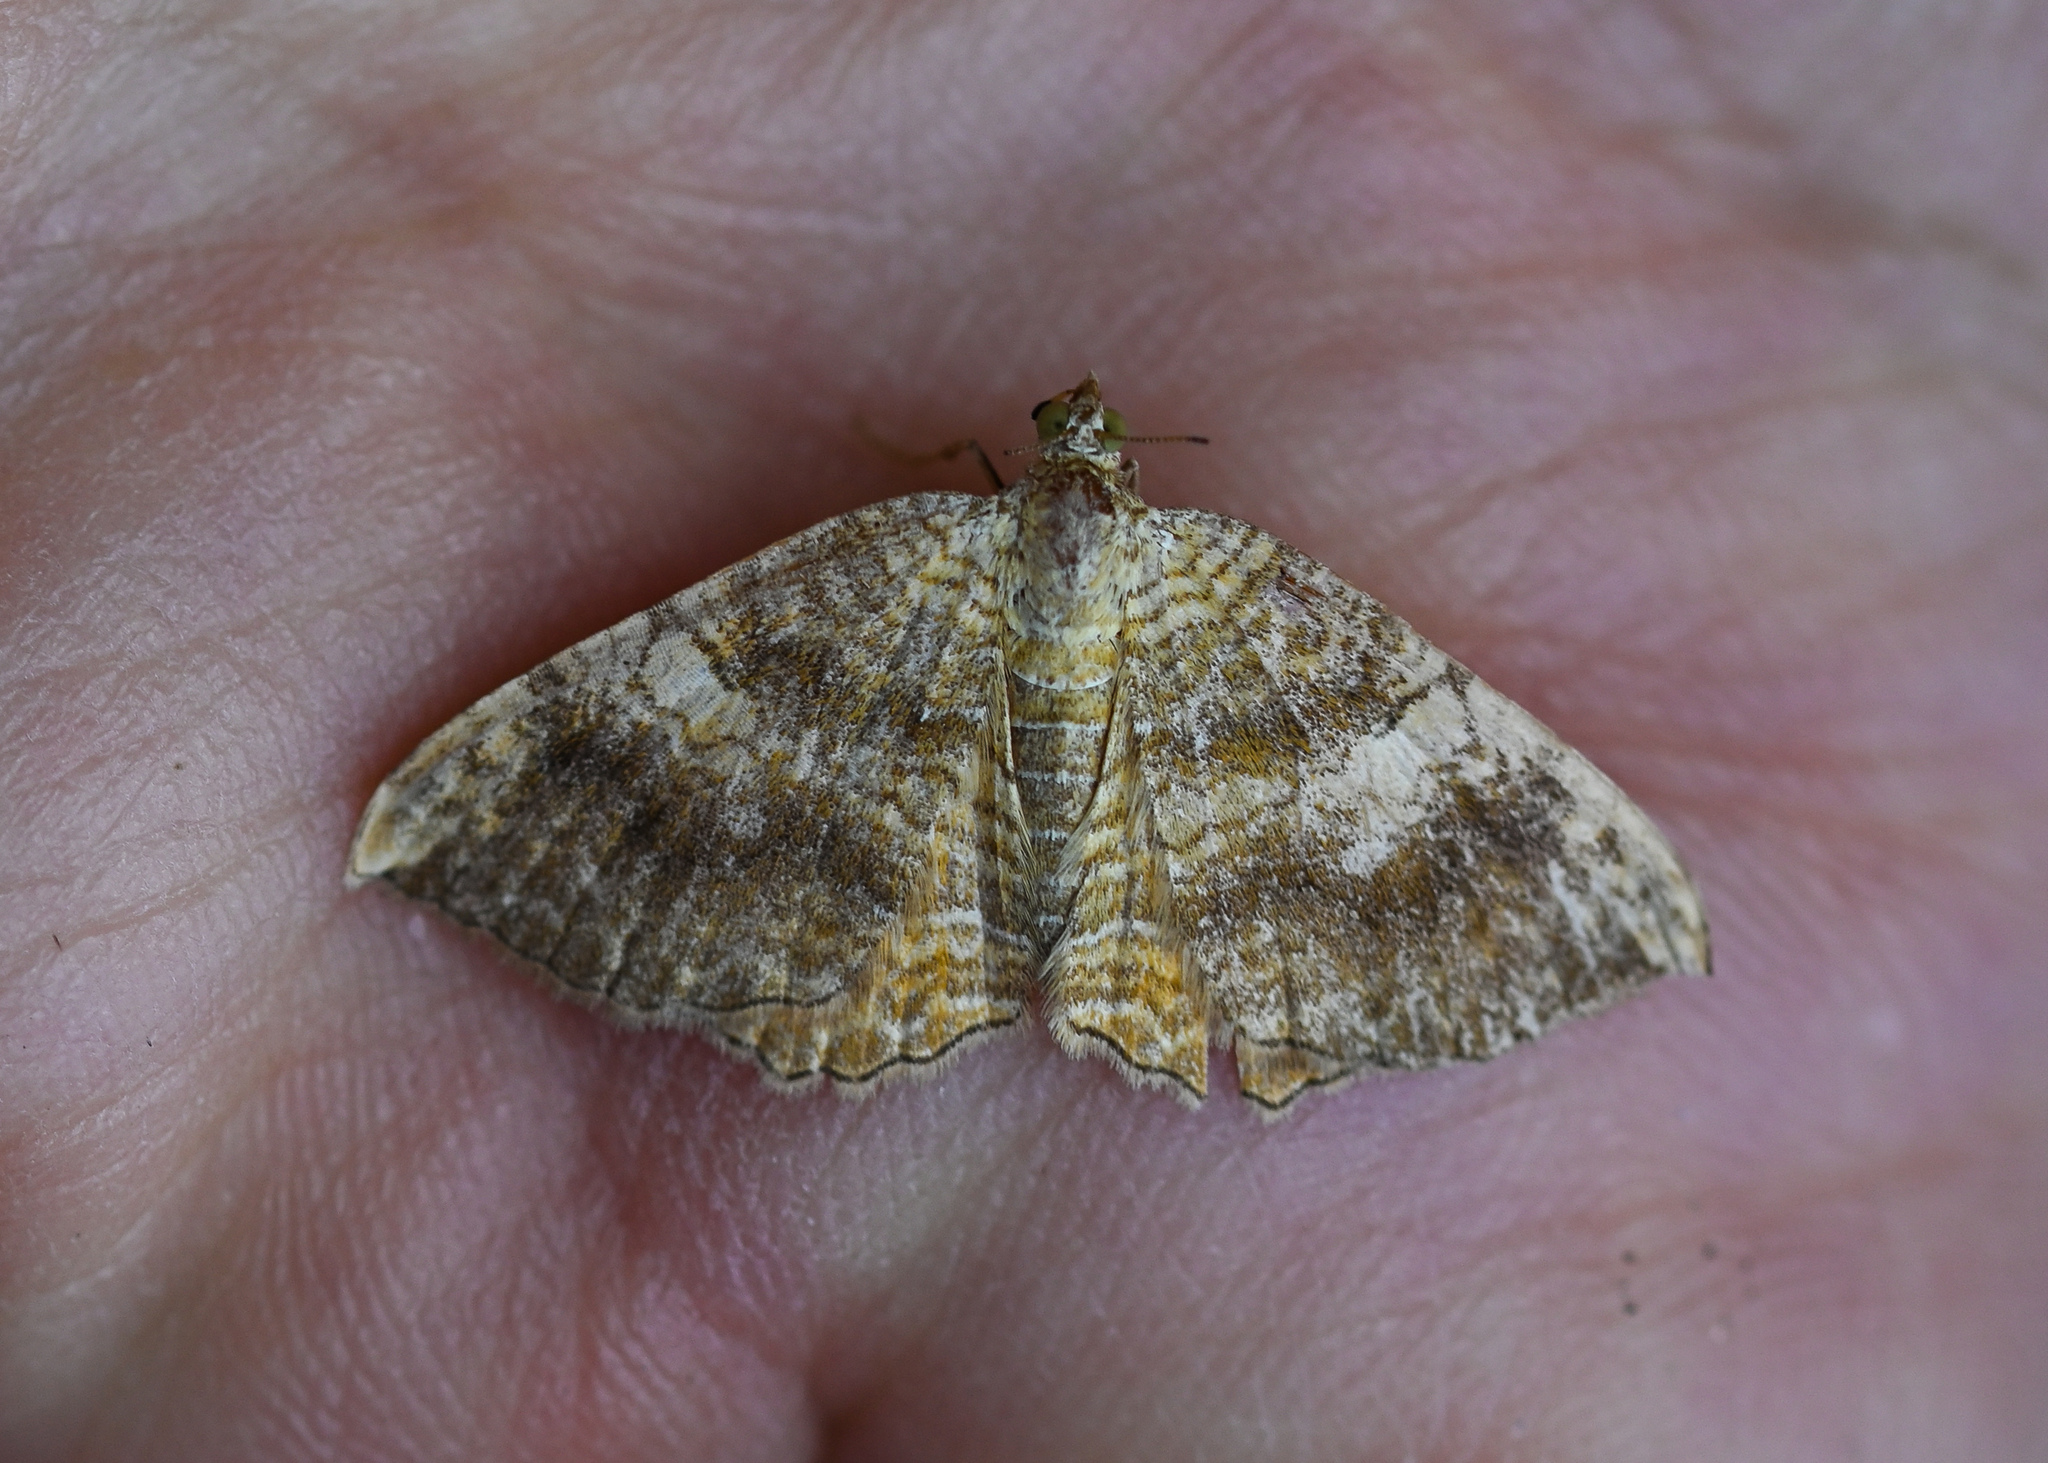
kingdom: Animalia
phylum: Arthropoda
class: Insecta
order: Lepidoptera
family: Geometridae
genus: Camptogramma
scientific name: Camptogramma bilineata
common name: Yellow shell
